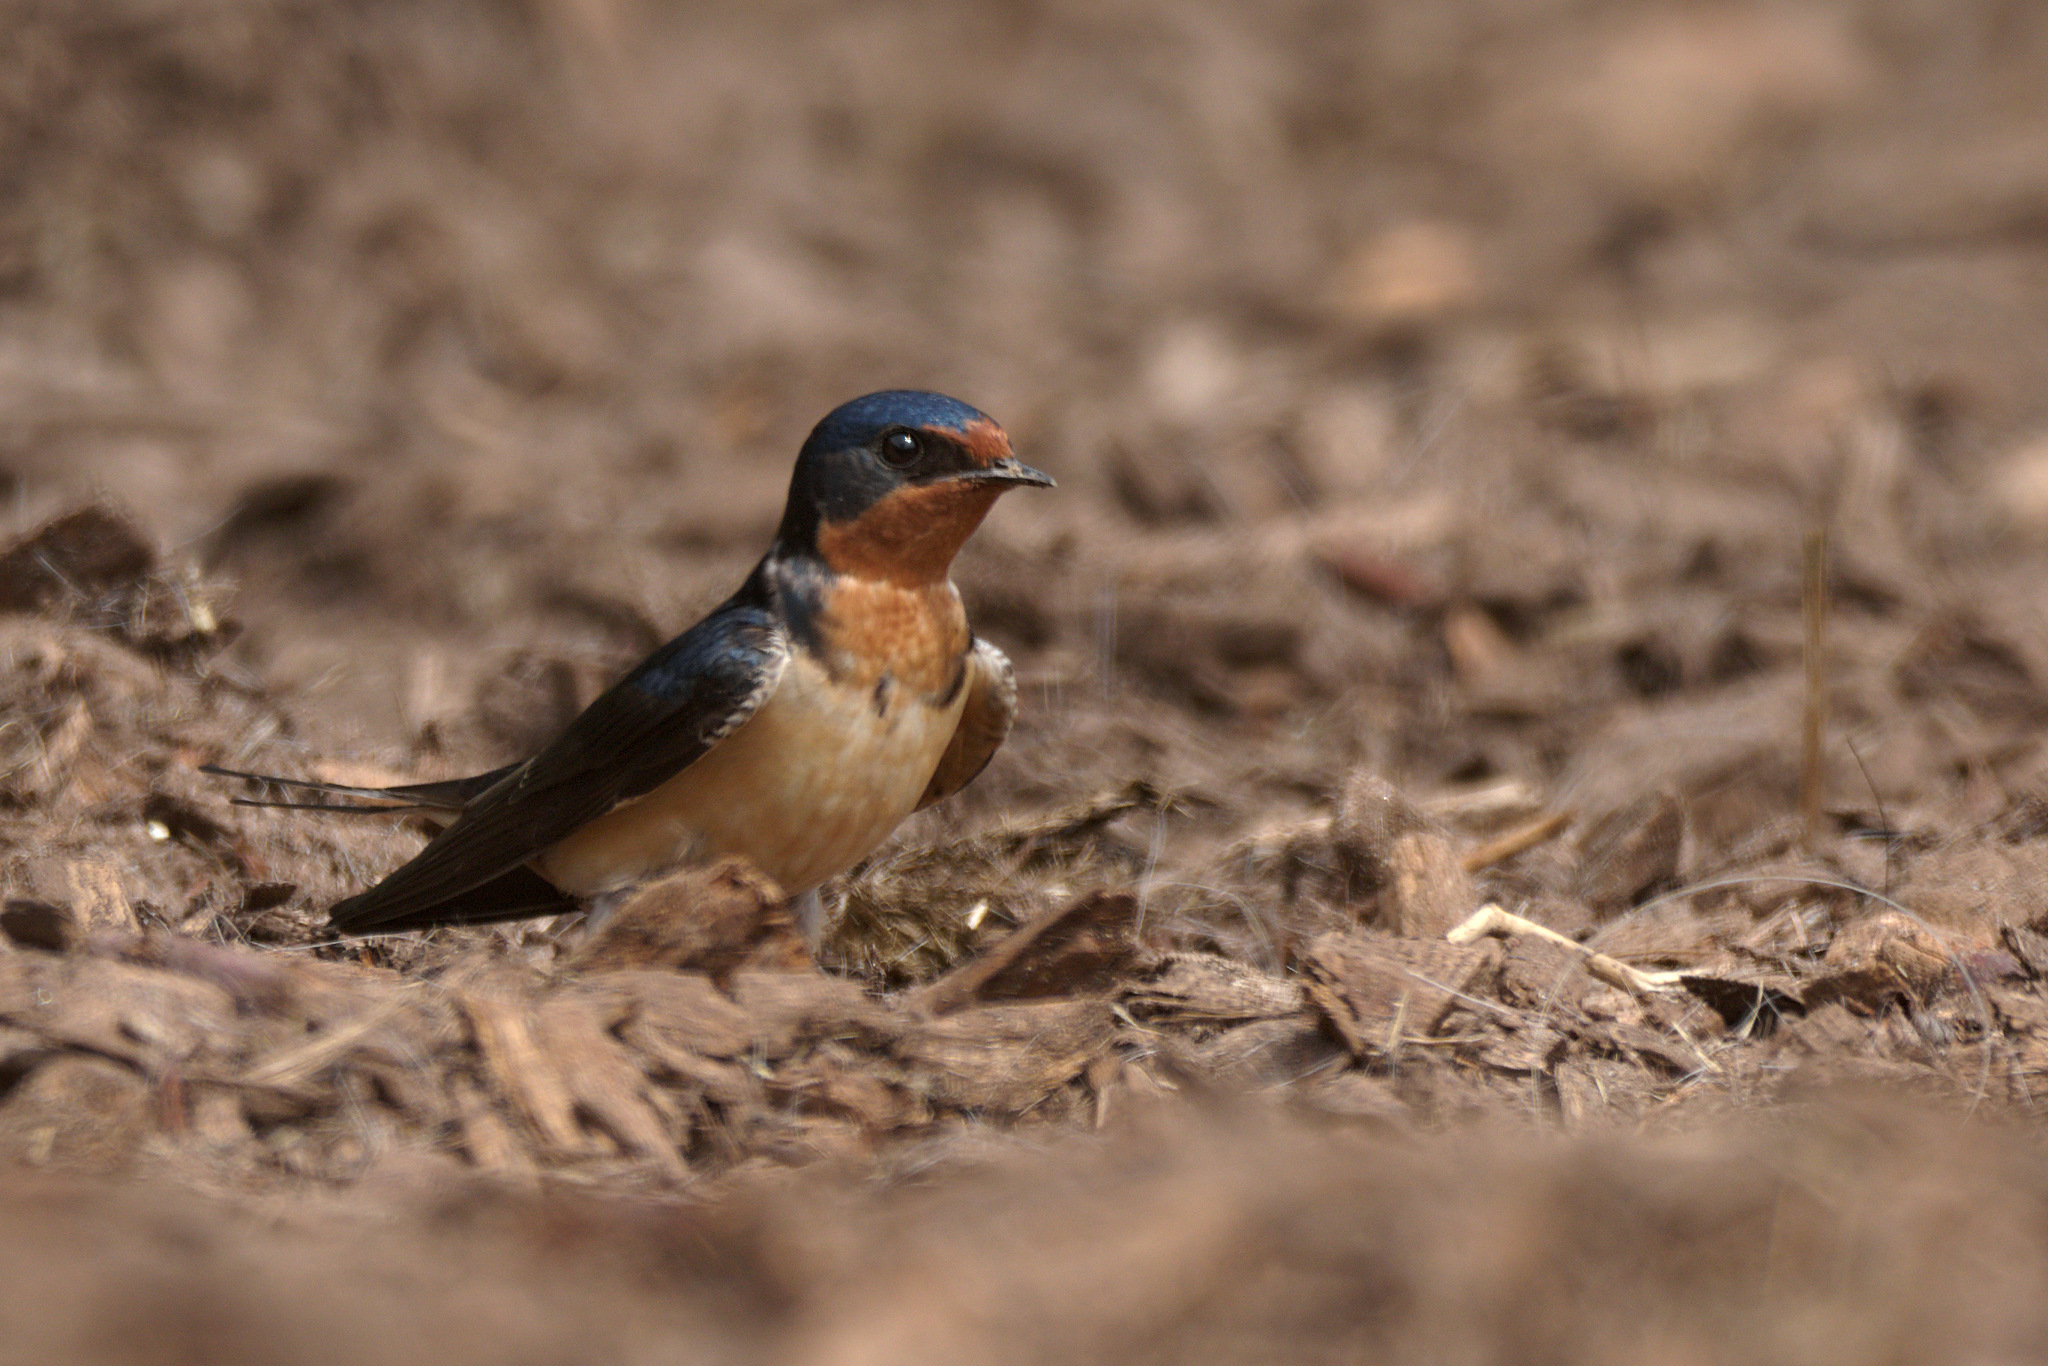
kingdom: Animalia
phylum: Chordata
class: Aves
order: Passeriformes
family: Hirundinidae
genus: Hirundo
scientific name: Hirundo rustica
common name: Barn swallow
